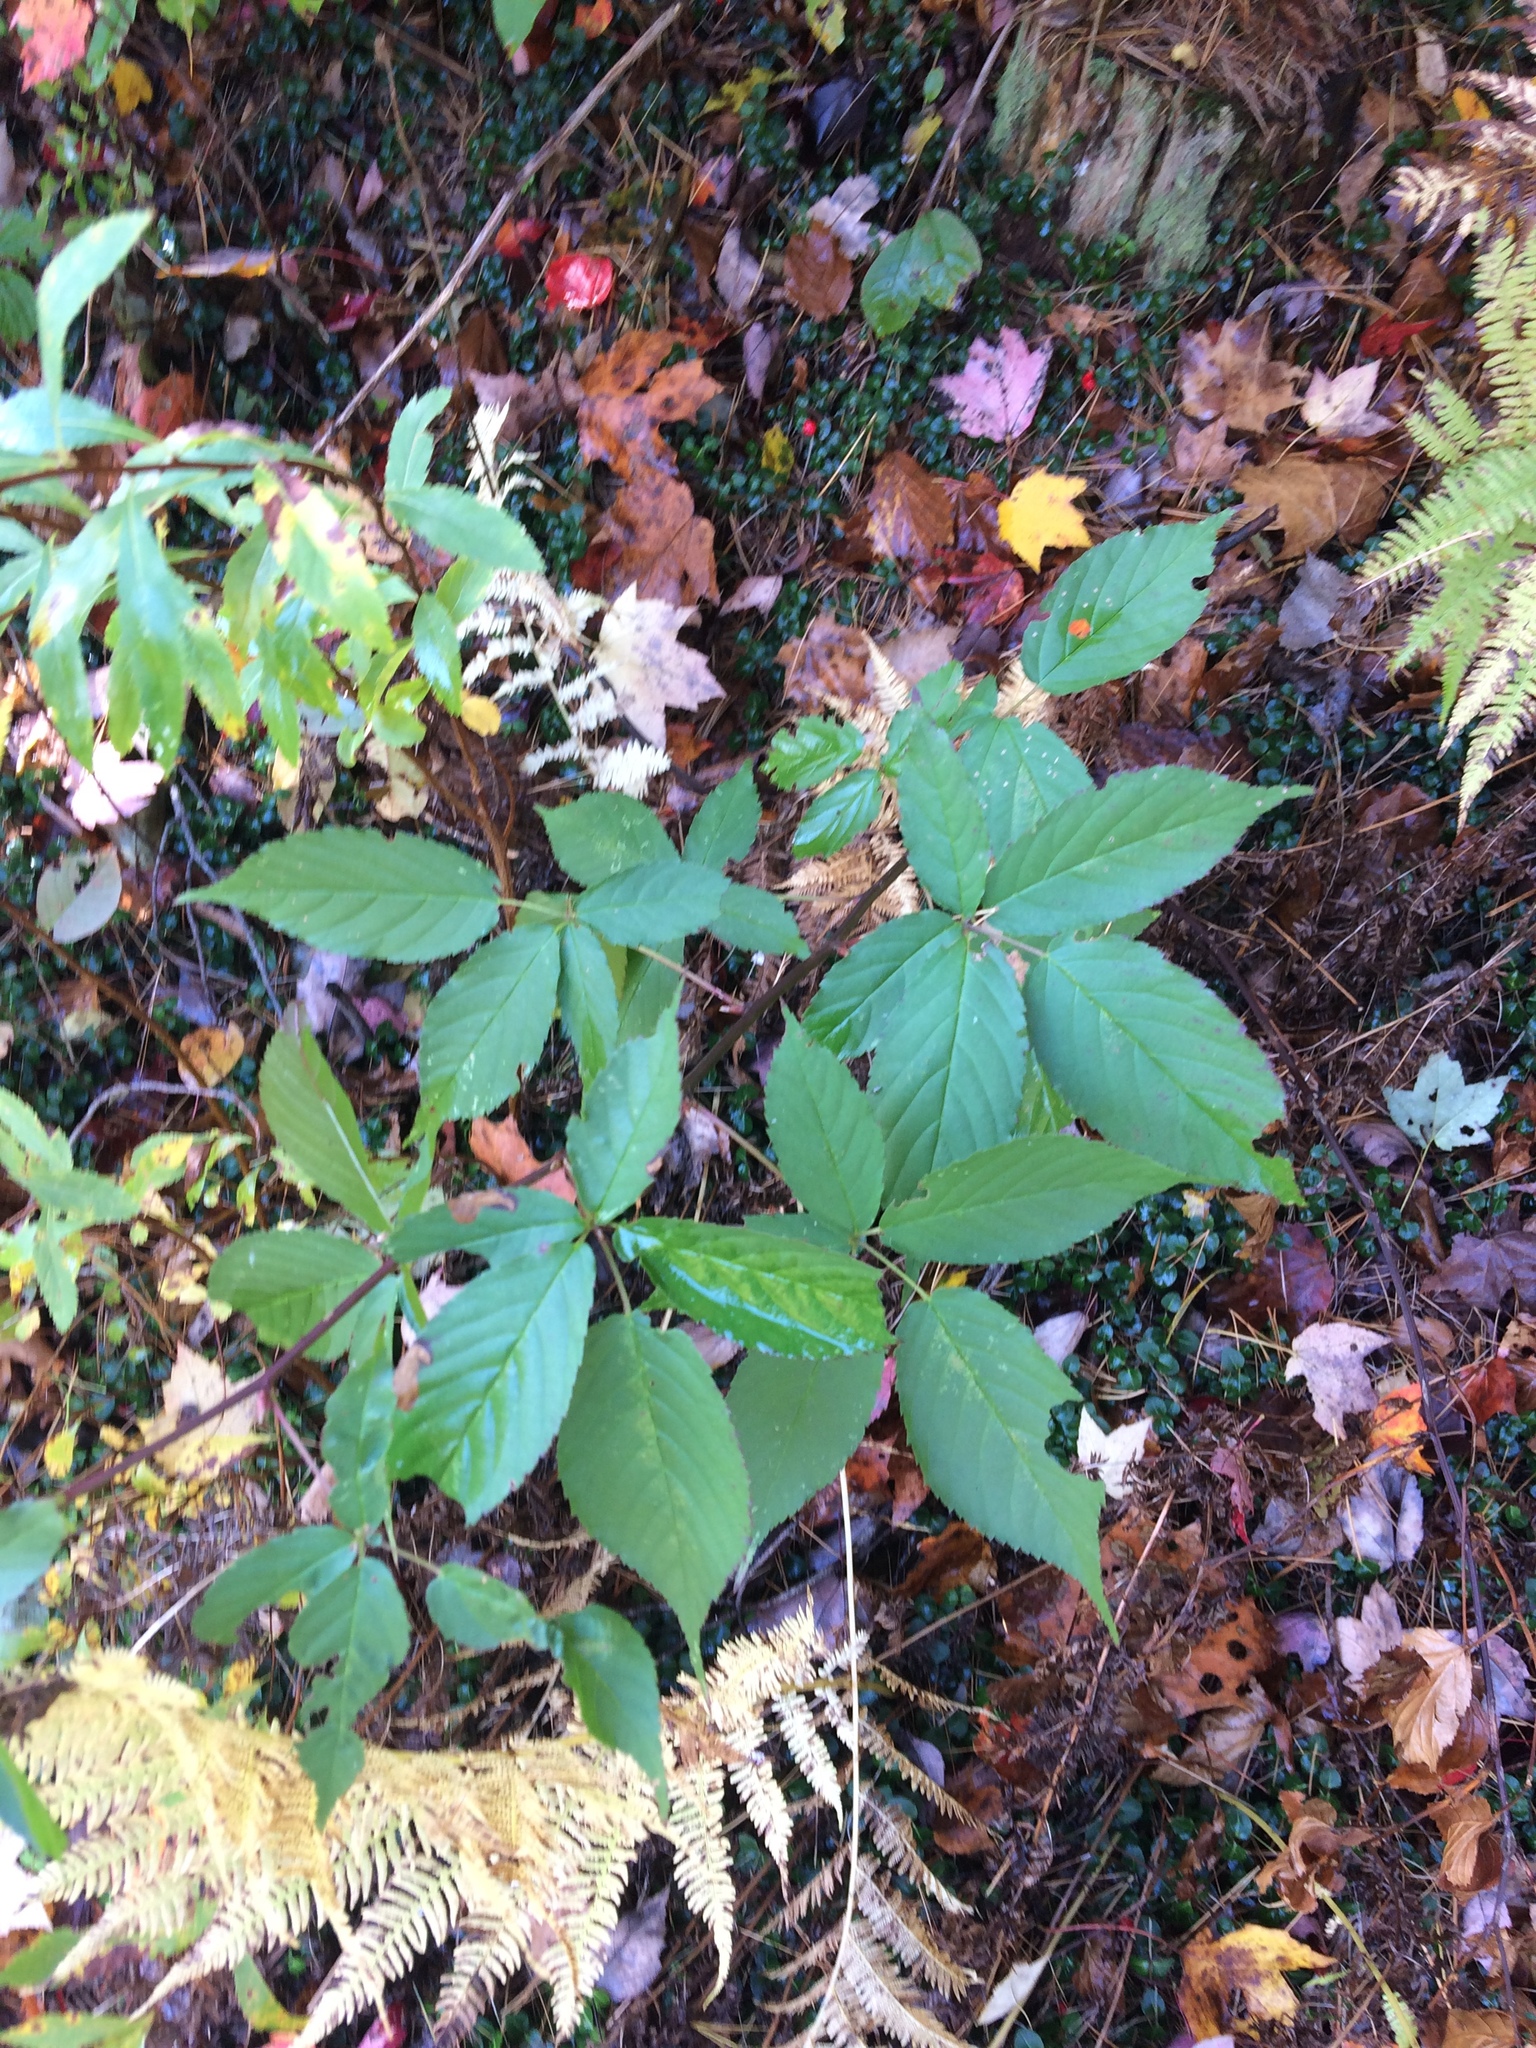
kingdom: Plantae
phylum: Tracheophyta
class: Magnoliopsida
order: Rosales
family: Rosaceae
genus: Rubus
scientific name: Rubus allegheniensis
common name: Allegheny blackberry
